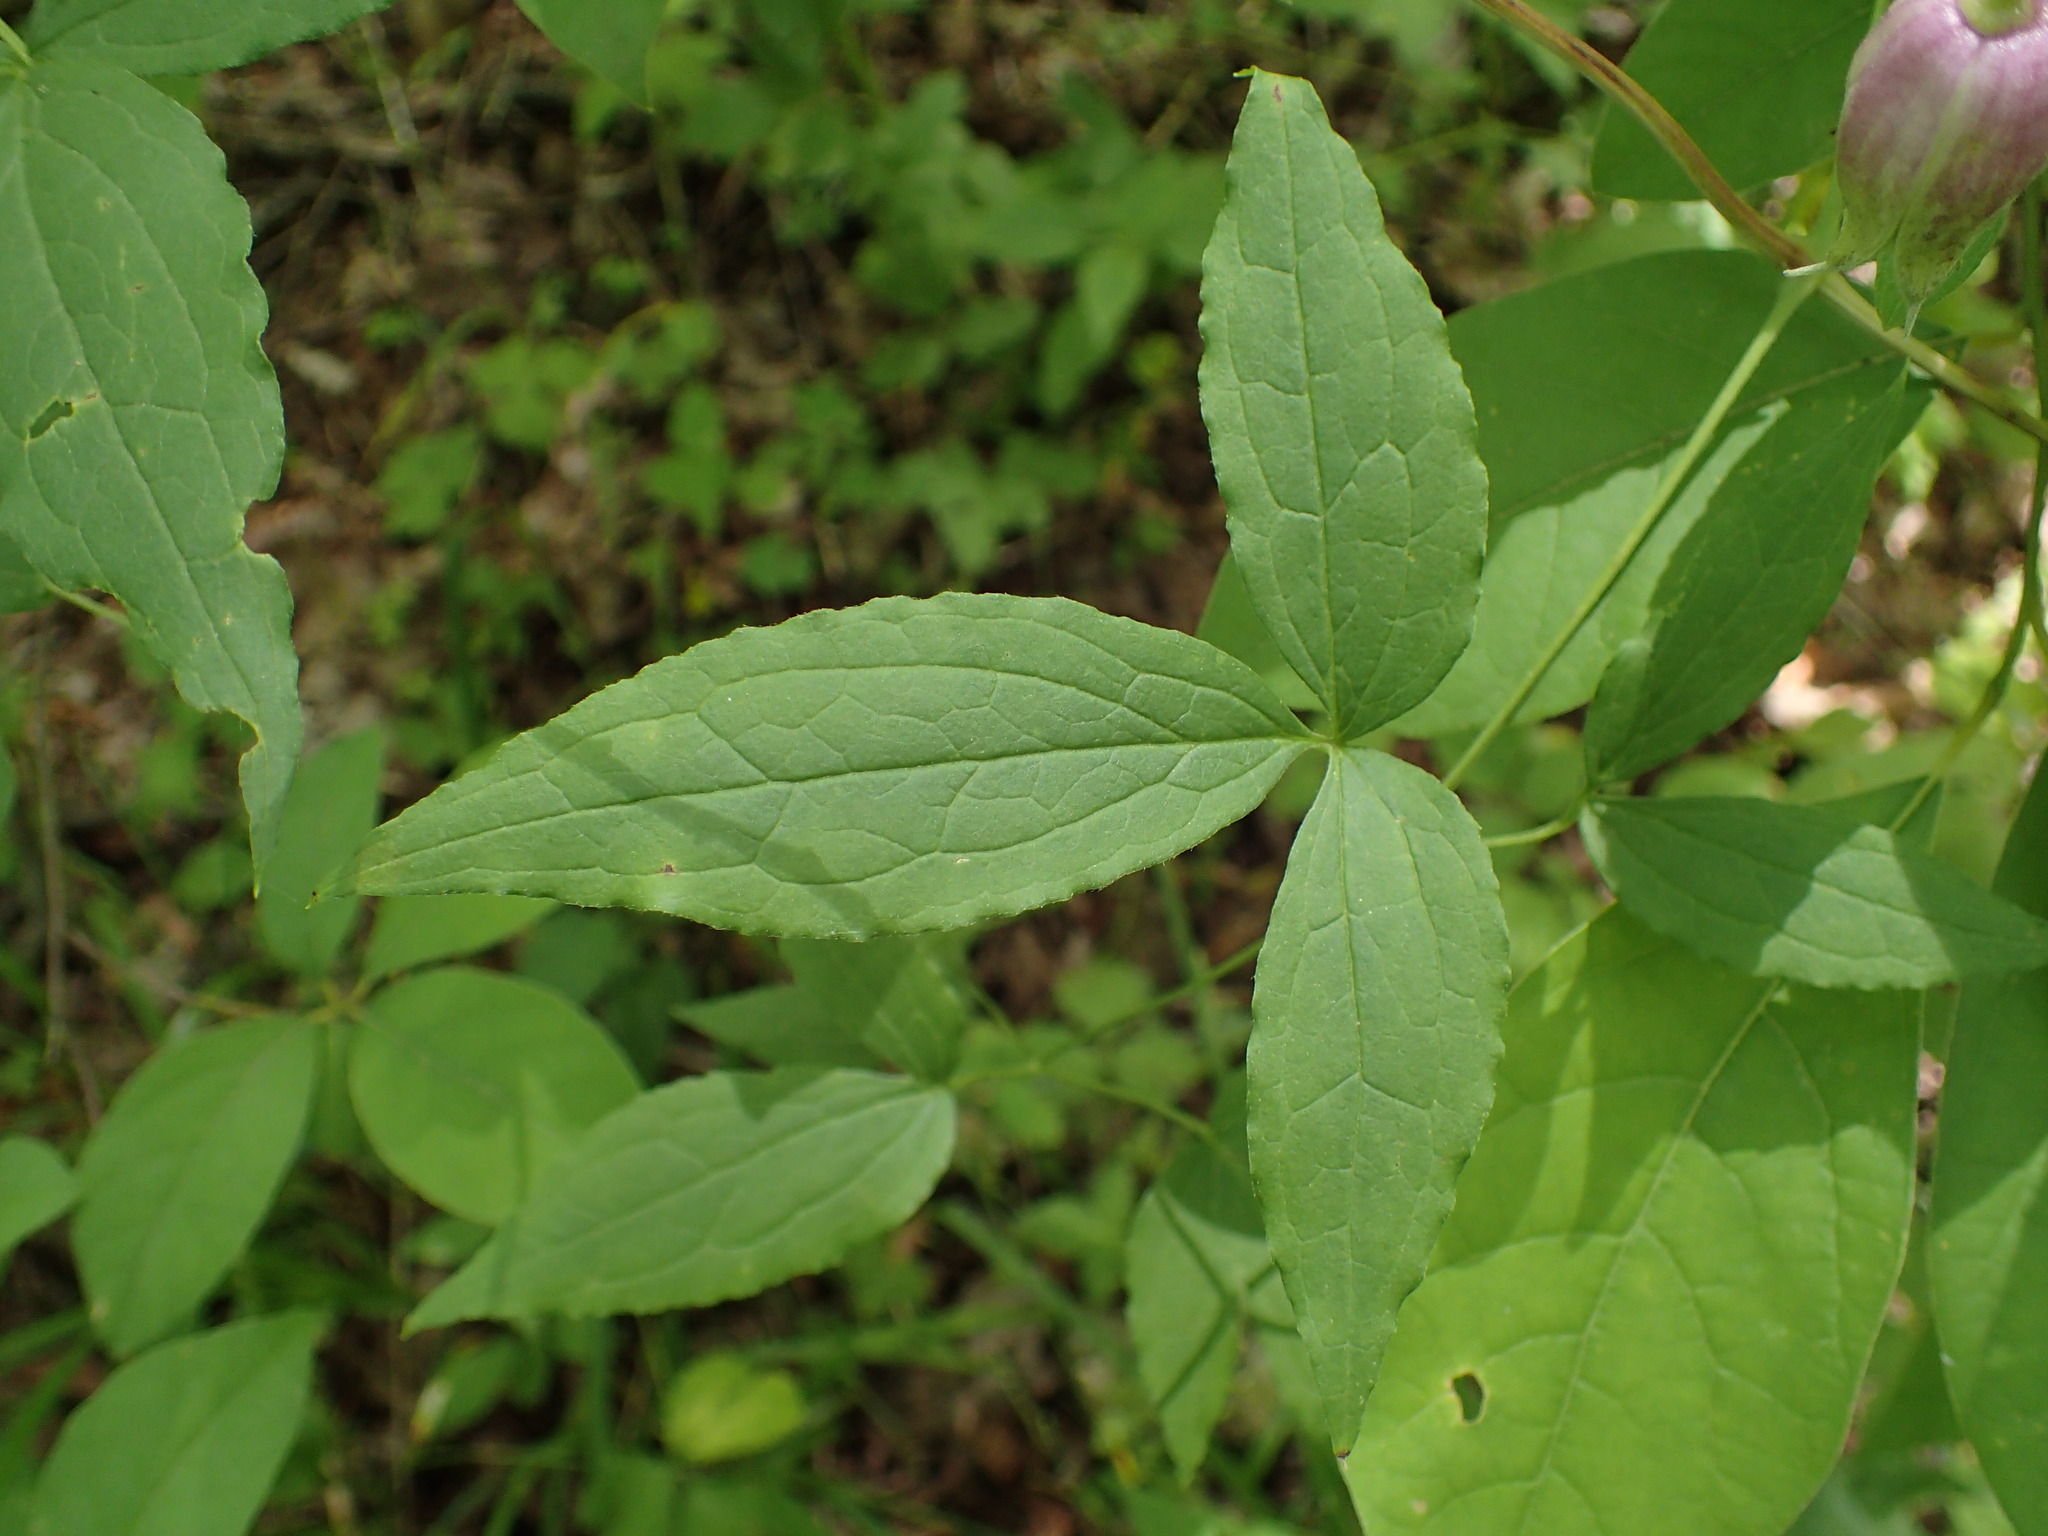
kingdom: Plantae
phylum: Tracheophyta
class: Magnoliopsida
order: Ranunculales
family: Ranunculaceae
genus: Clematis
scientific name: Clematis viorna
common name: Leather-flower
